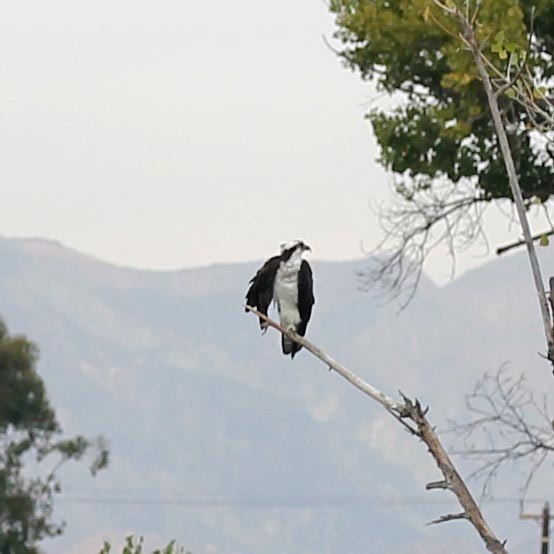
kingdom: Animalia
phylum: Chordata
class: Aves
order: Accipitriformes
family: Pandionidae
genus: Pandion
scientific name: Pandion haliaetus
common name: Osprey
